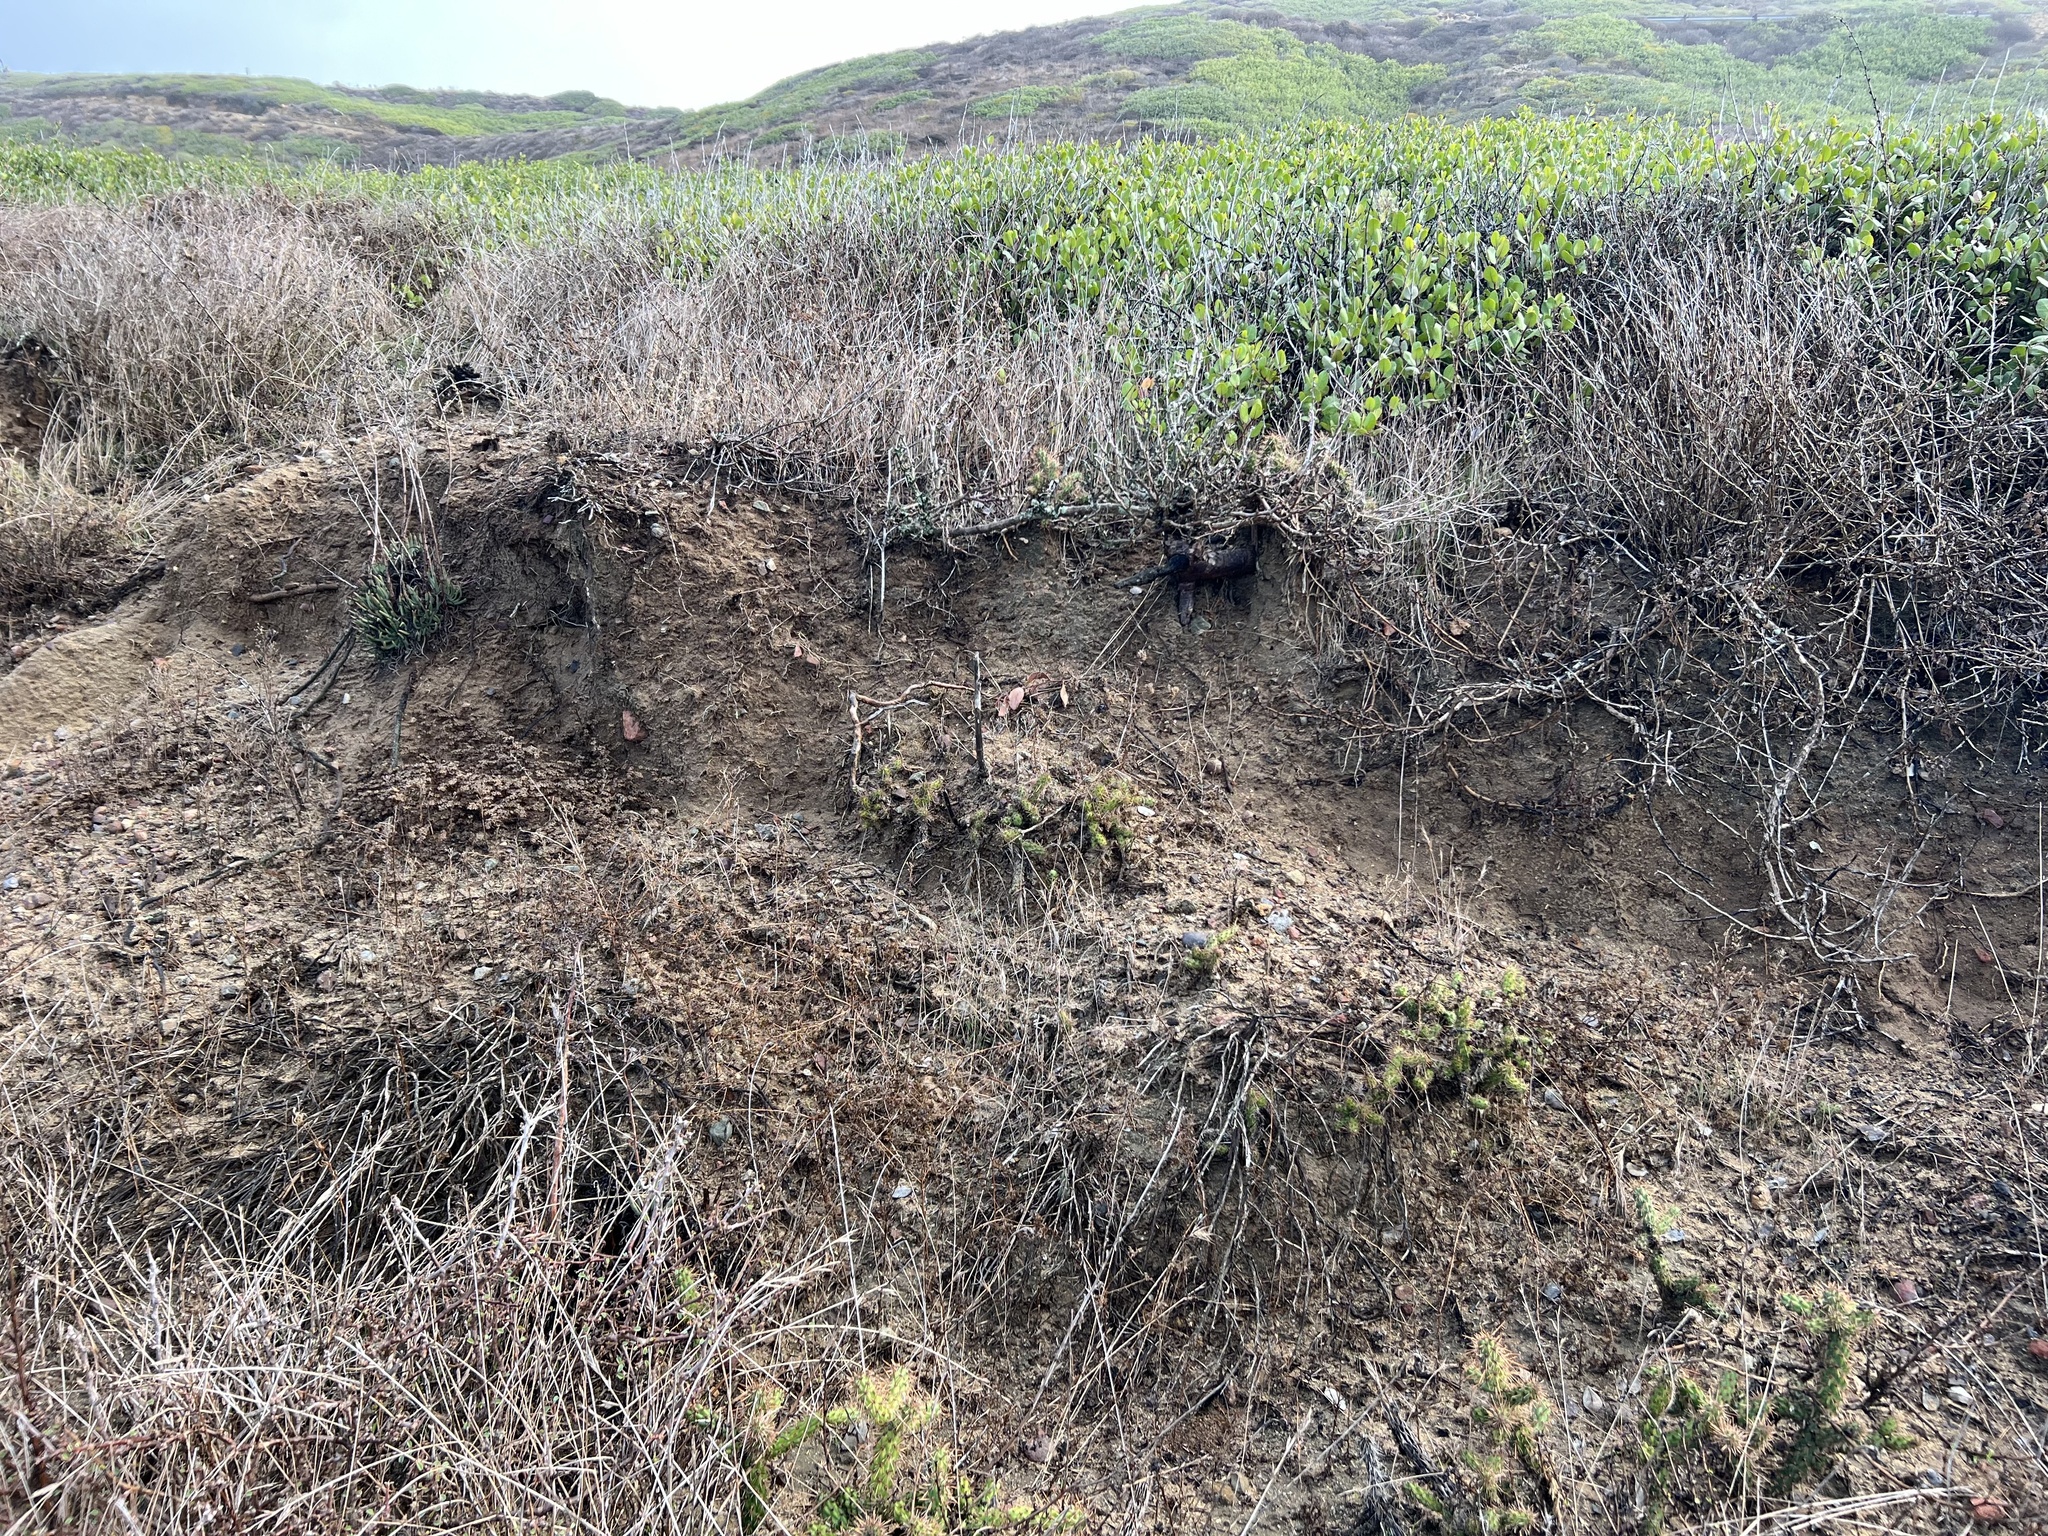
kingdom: Plantae
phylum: Tracheophyta
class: Magnoliopsida
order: Caryophyllales
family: Cactaceae
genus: Cylindropuntia
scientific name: Cylindropuntia prolifera
